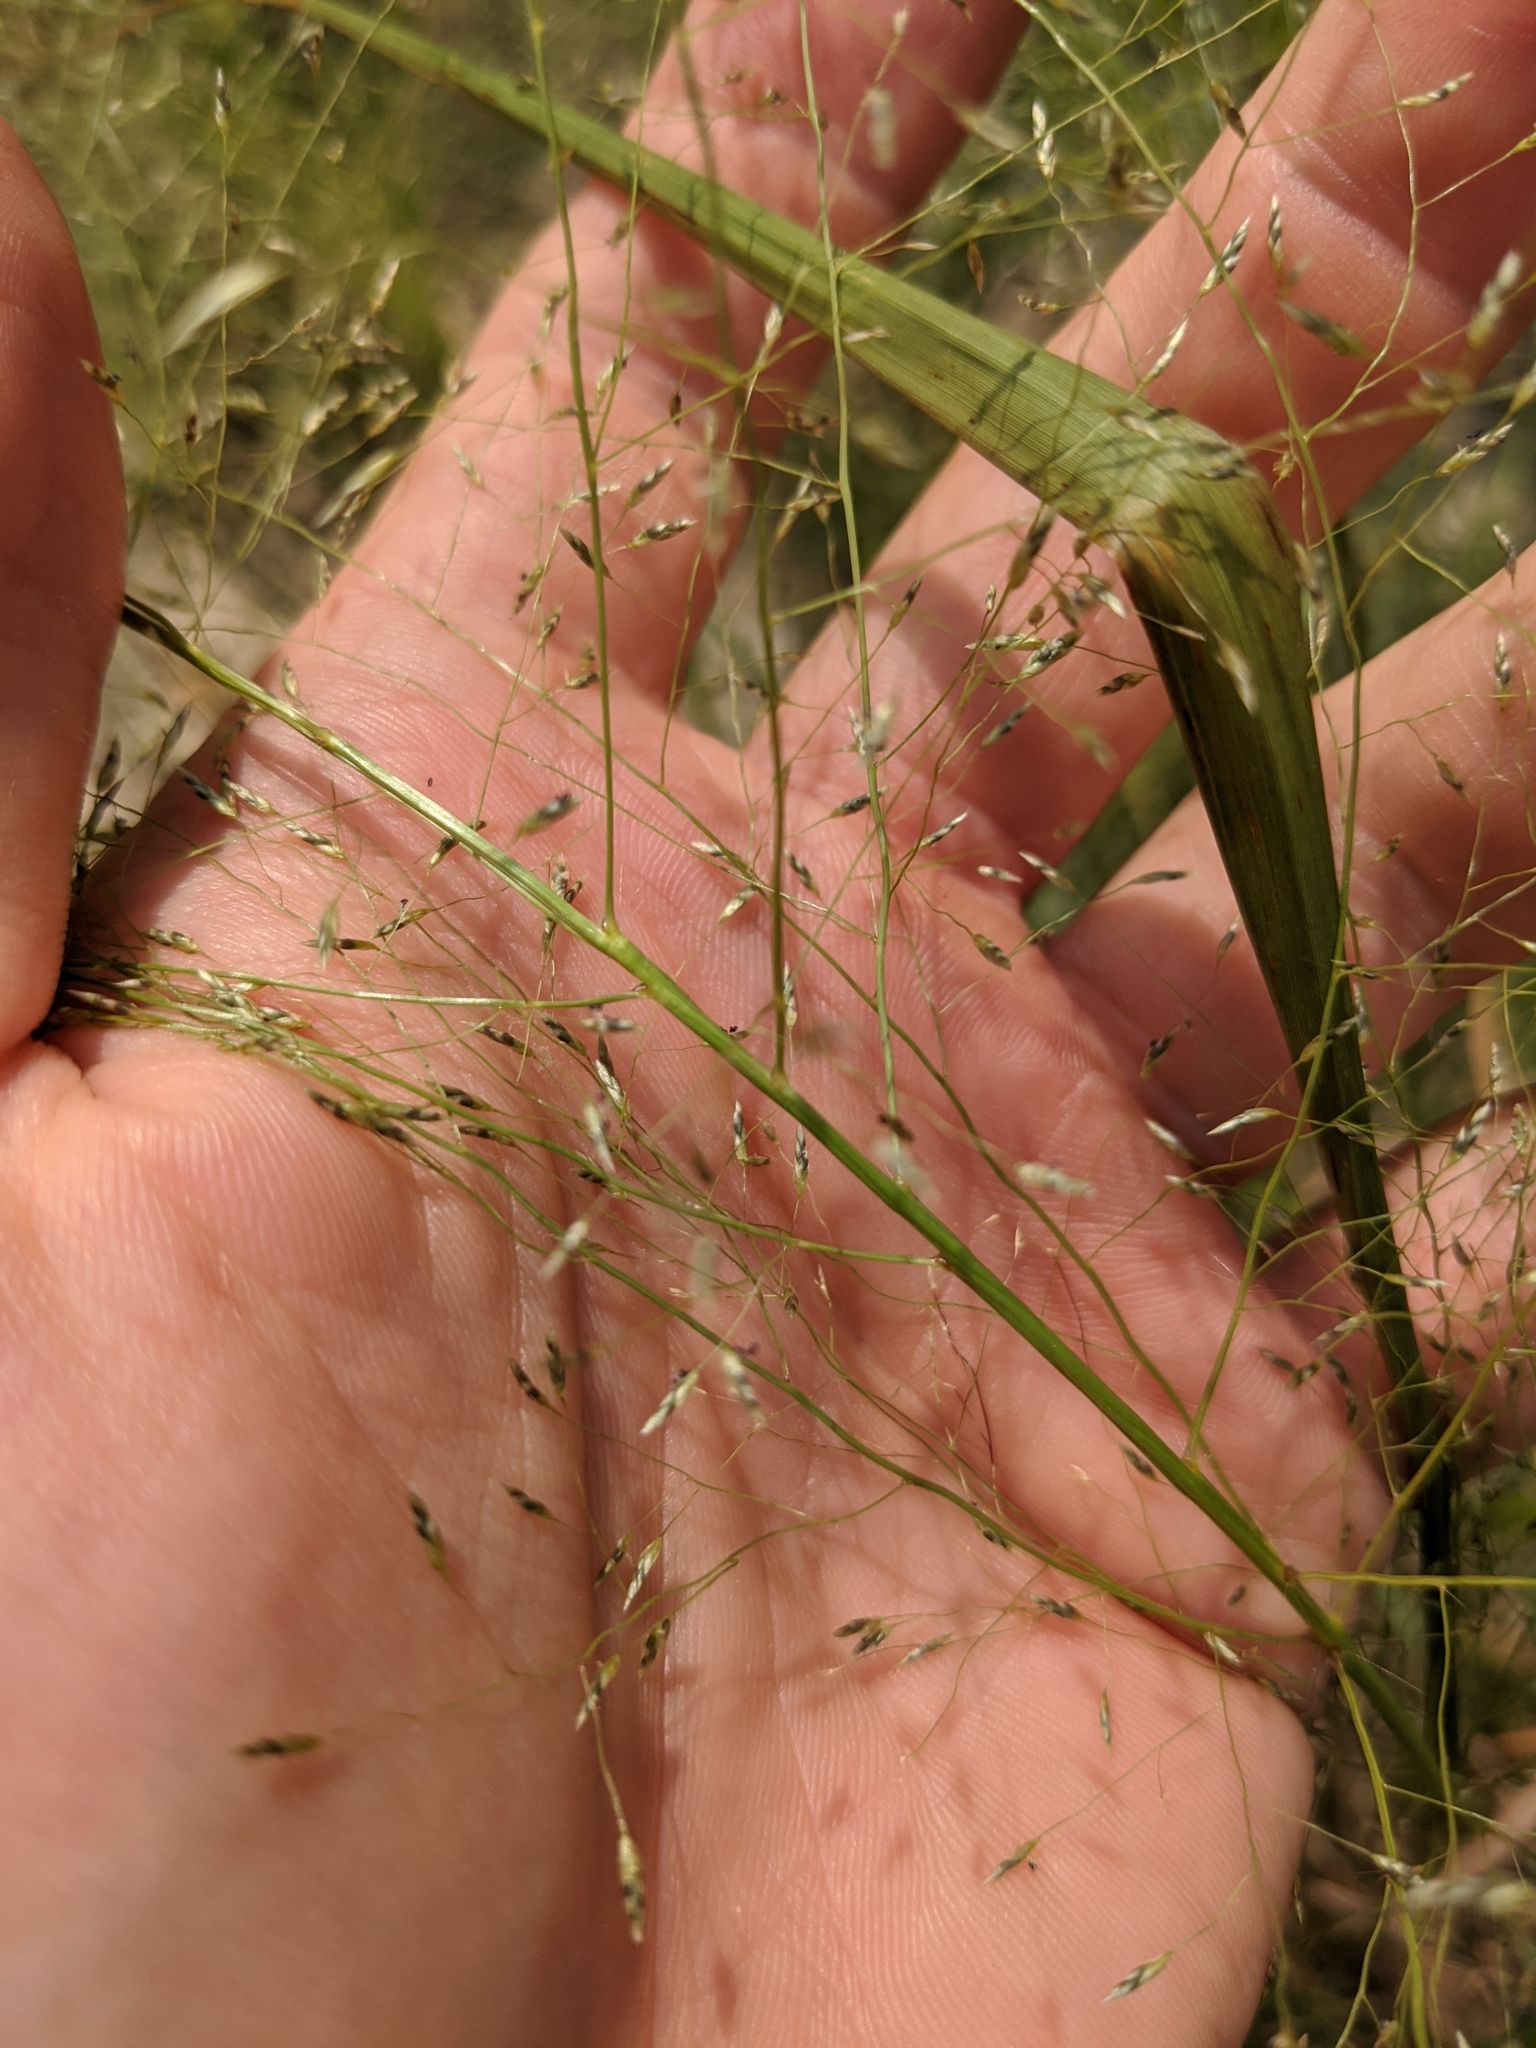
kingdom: Plantae
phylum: Tracheophyta
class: Liliopsida
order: Poales
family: Poaceae
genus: Eragrostis
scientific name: Eragrostis intermedia
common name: Plains love grass
